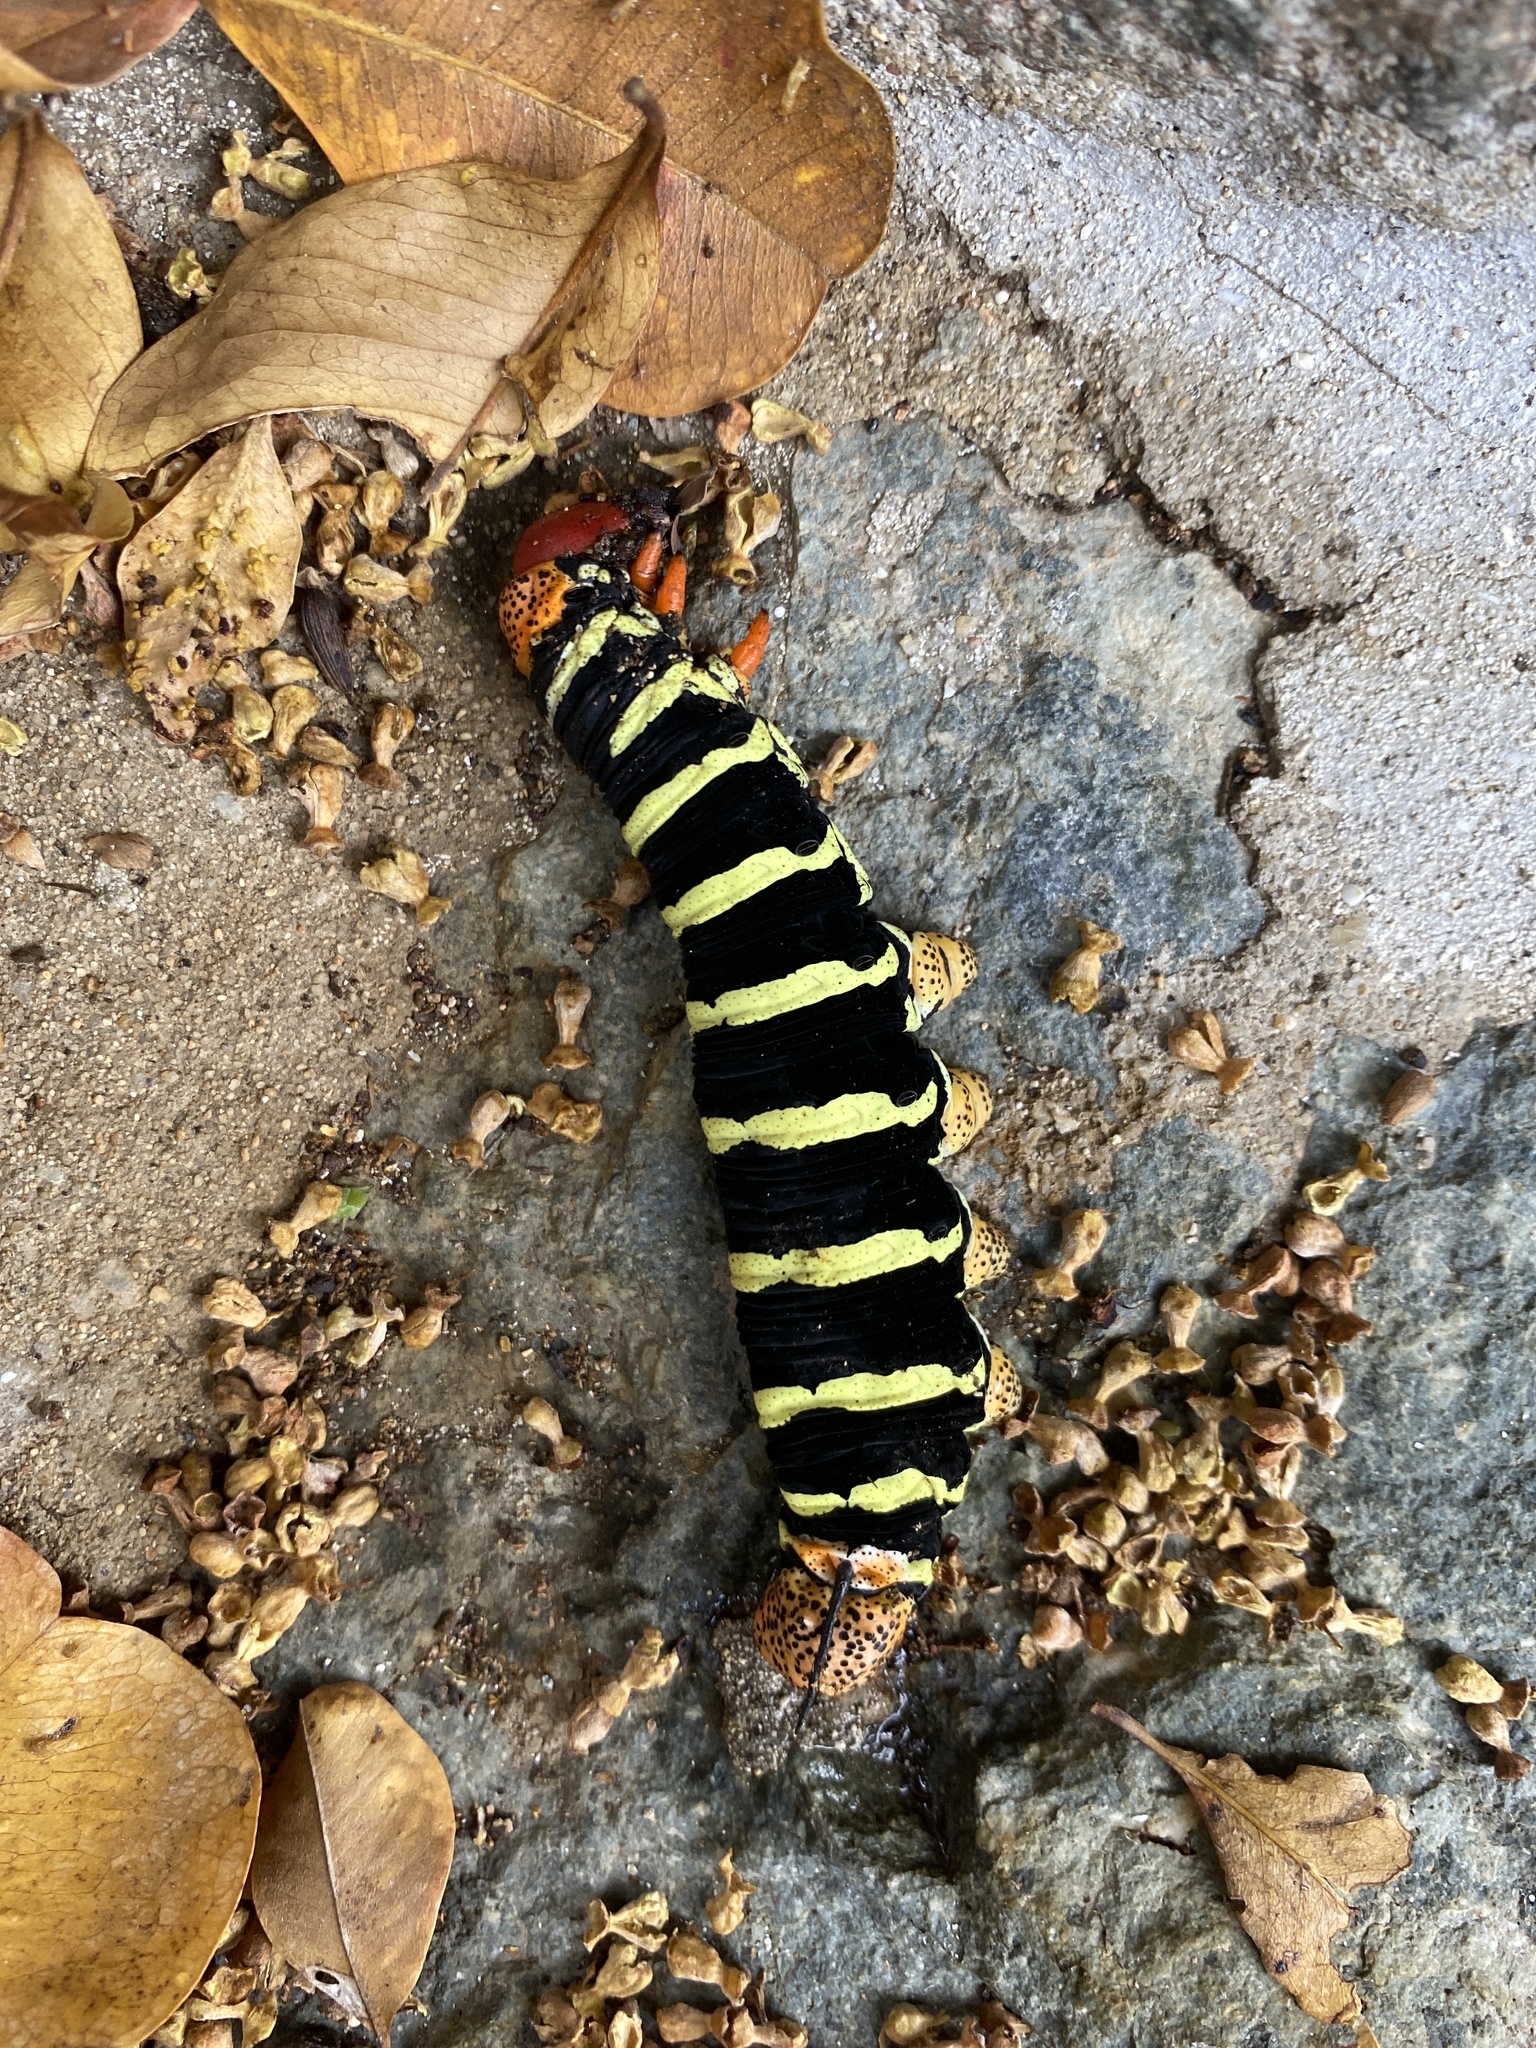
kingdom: Animalia
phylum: Arthropoda
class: Insecta
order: Lepidoptera
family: Sphingidae
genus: Pseudosphinx
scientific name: Pseudosphinx tetrio
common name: Tetrio sphinx
